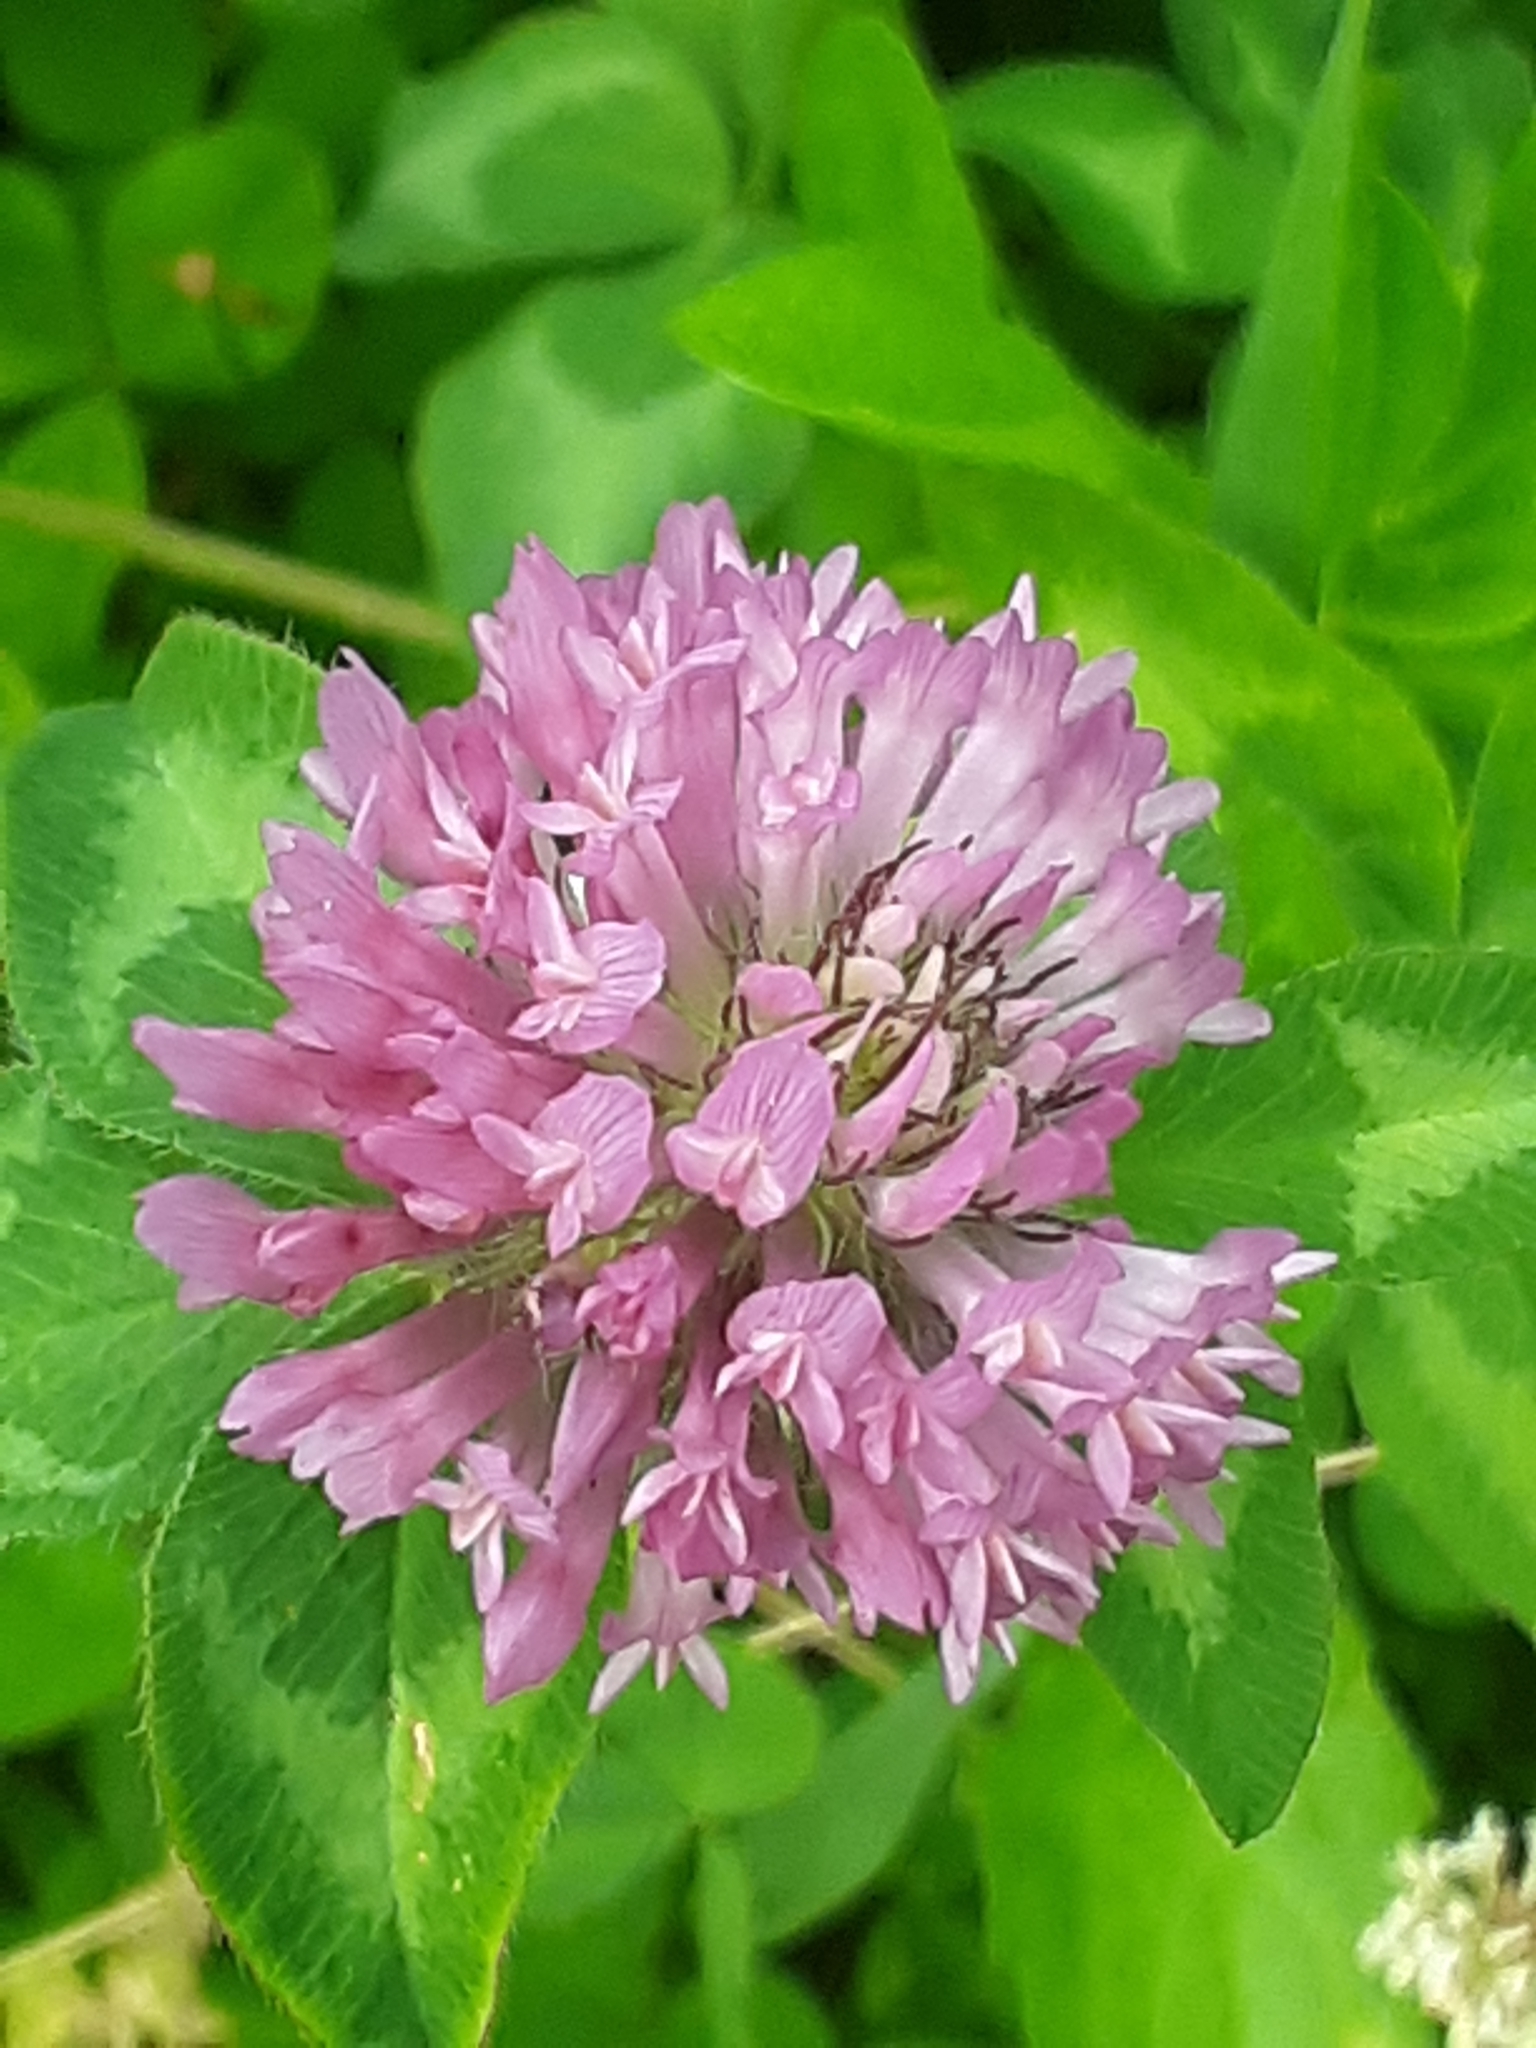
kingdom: Plantae
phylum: Tracheophyta
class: Magnoliopsida
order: Fabales
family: Fabaceae
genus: Trifolium
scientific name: Trifolium pratense
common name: Red clover
